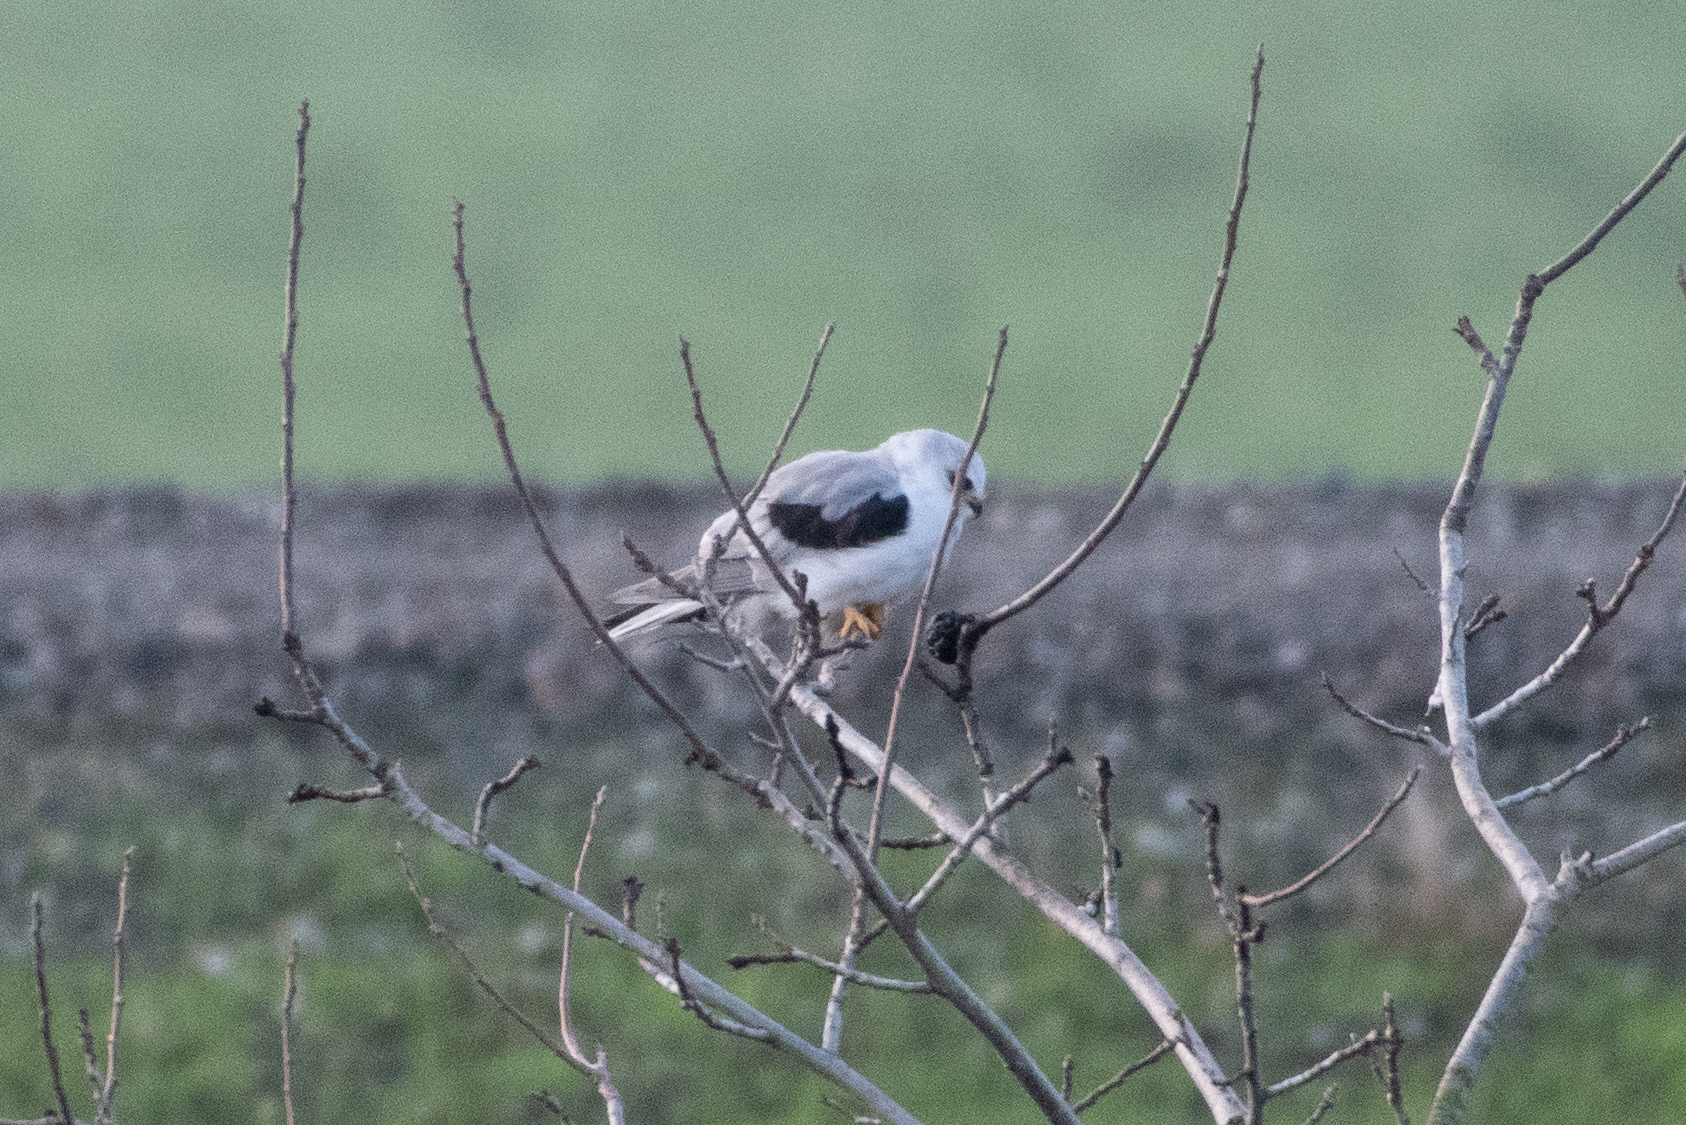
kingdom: Animalia
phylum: Chordata
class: Aves
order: Accipitriformes
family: Accipitridae
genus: Elanus
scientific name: Elanus leucurus
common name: White-tailed kite
